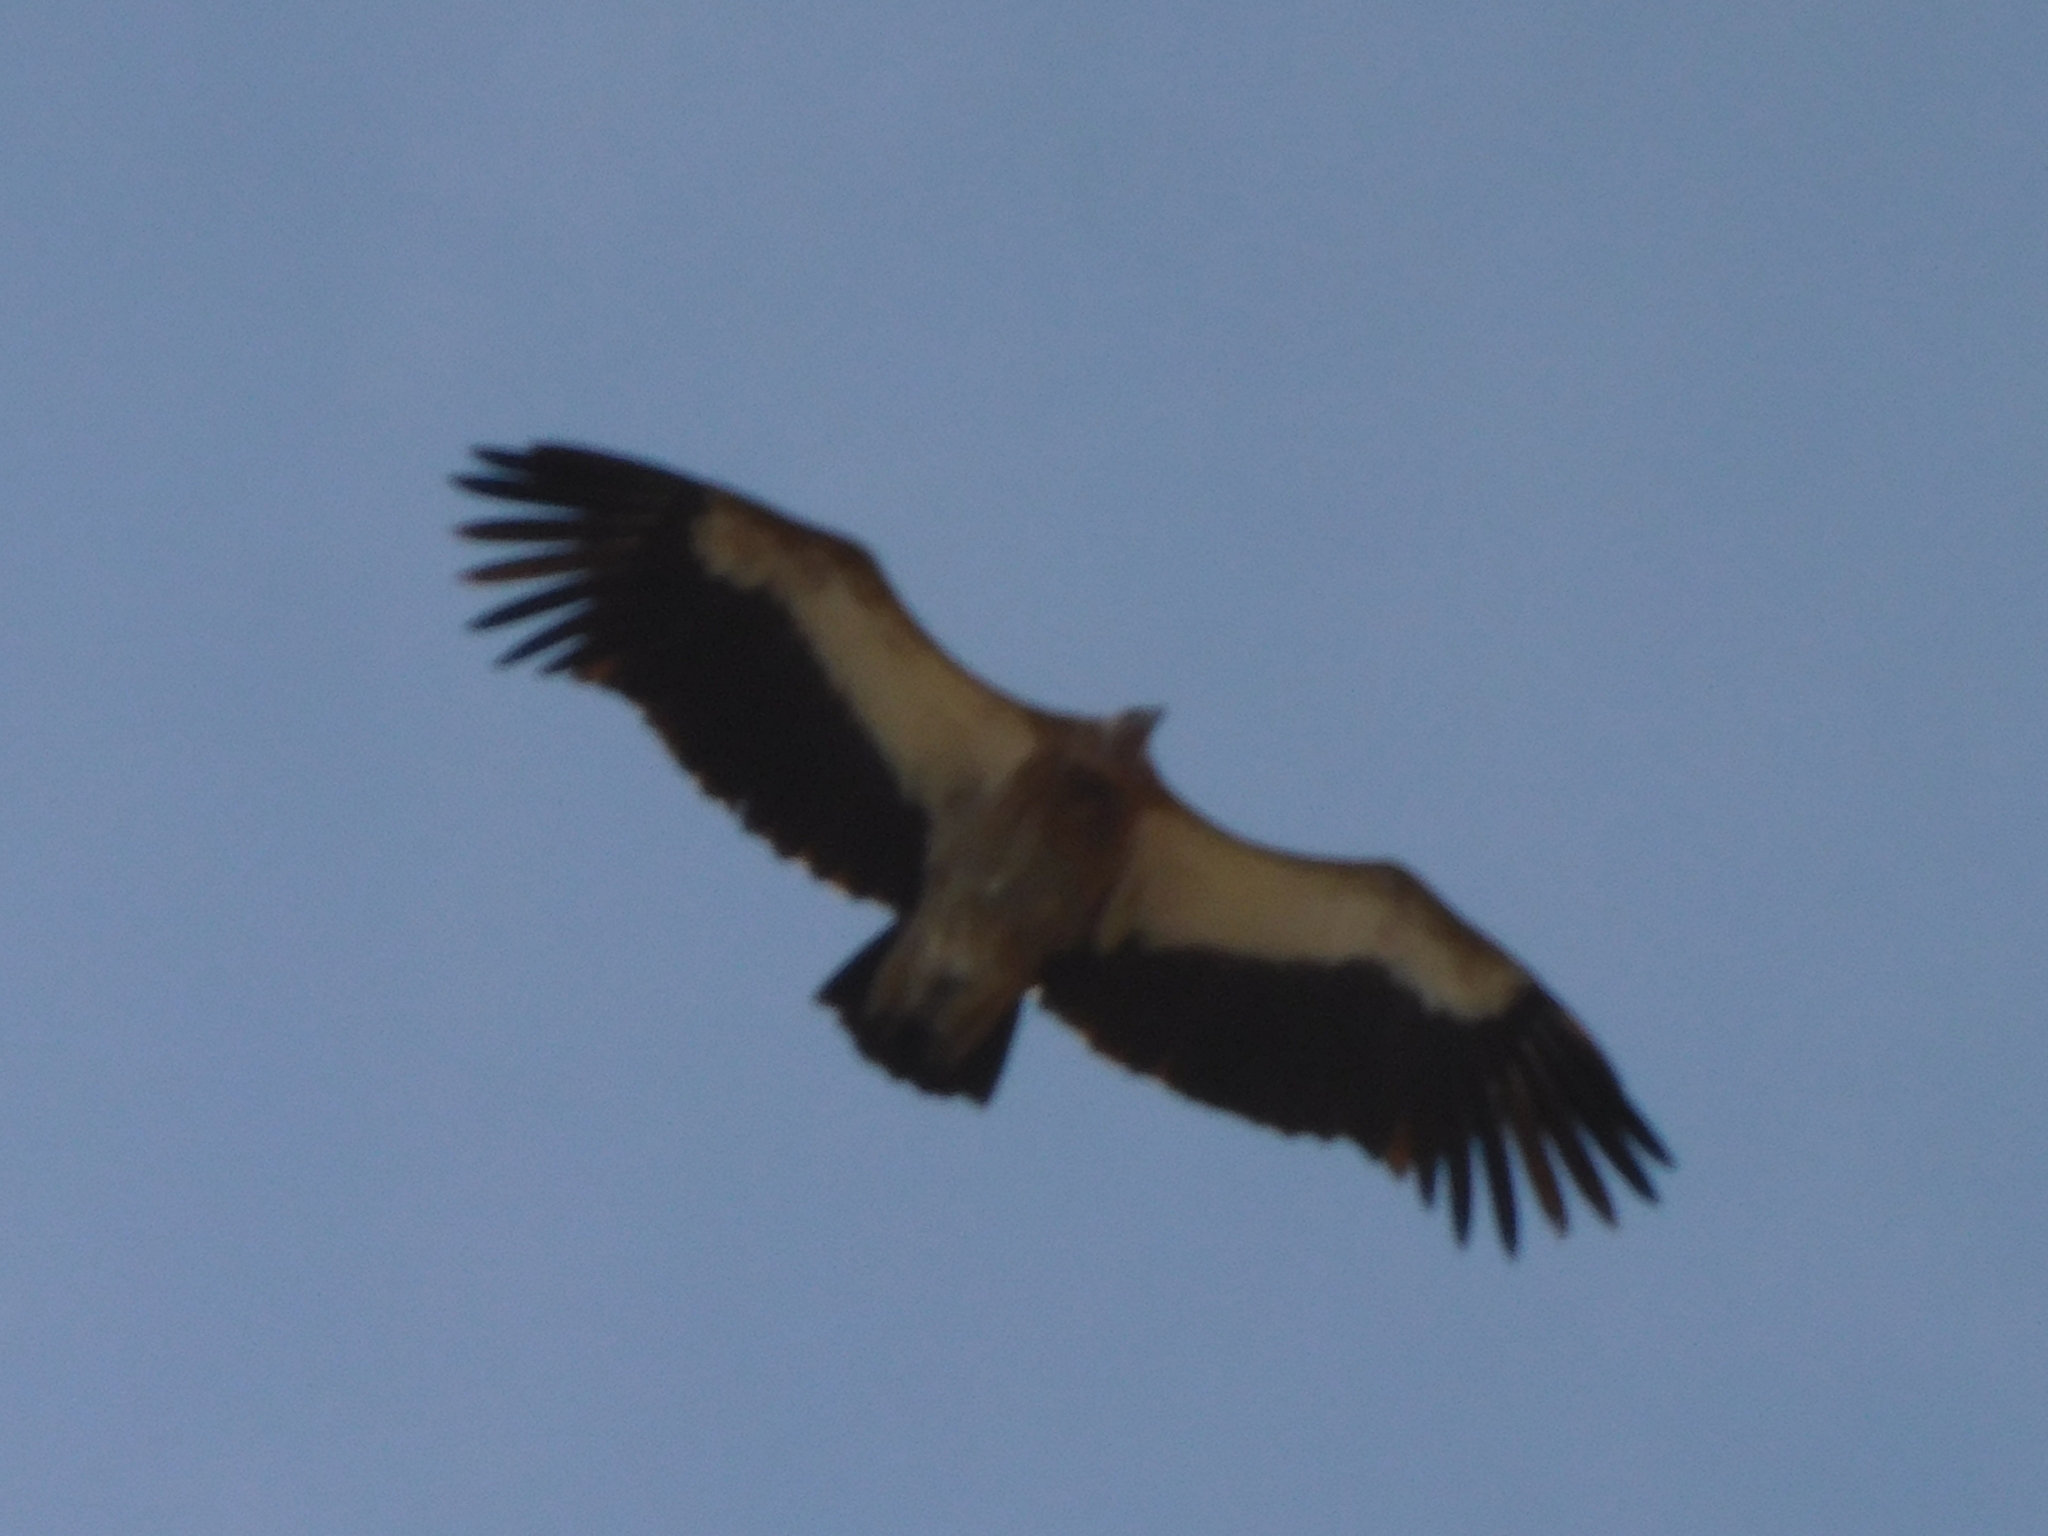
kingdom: Animalia
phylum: Chordata
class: Aves
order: Accipitriformes
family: Accipitridae
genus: Gyps
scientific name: Gyps himalayensis
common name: Himalayan griffon
